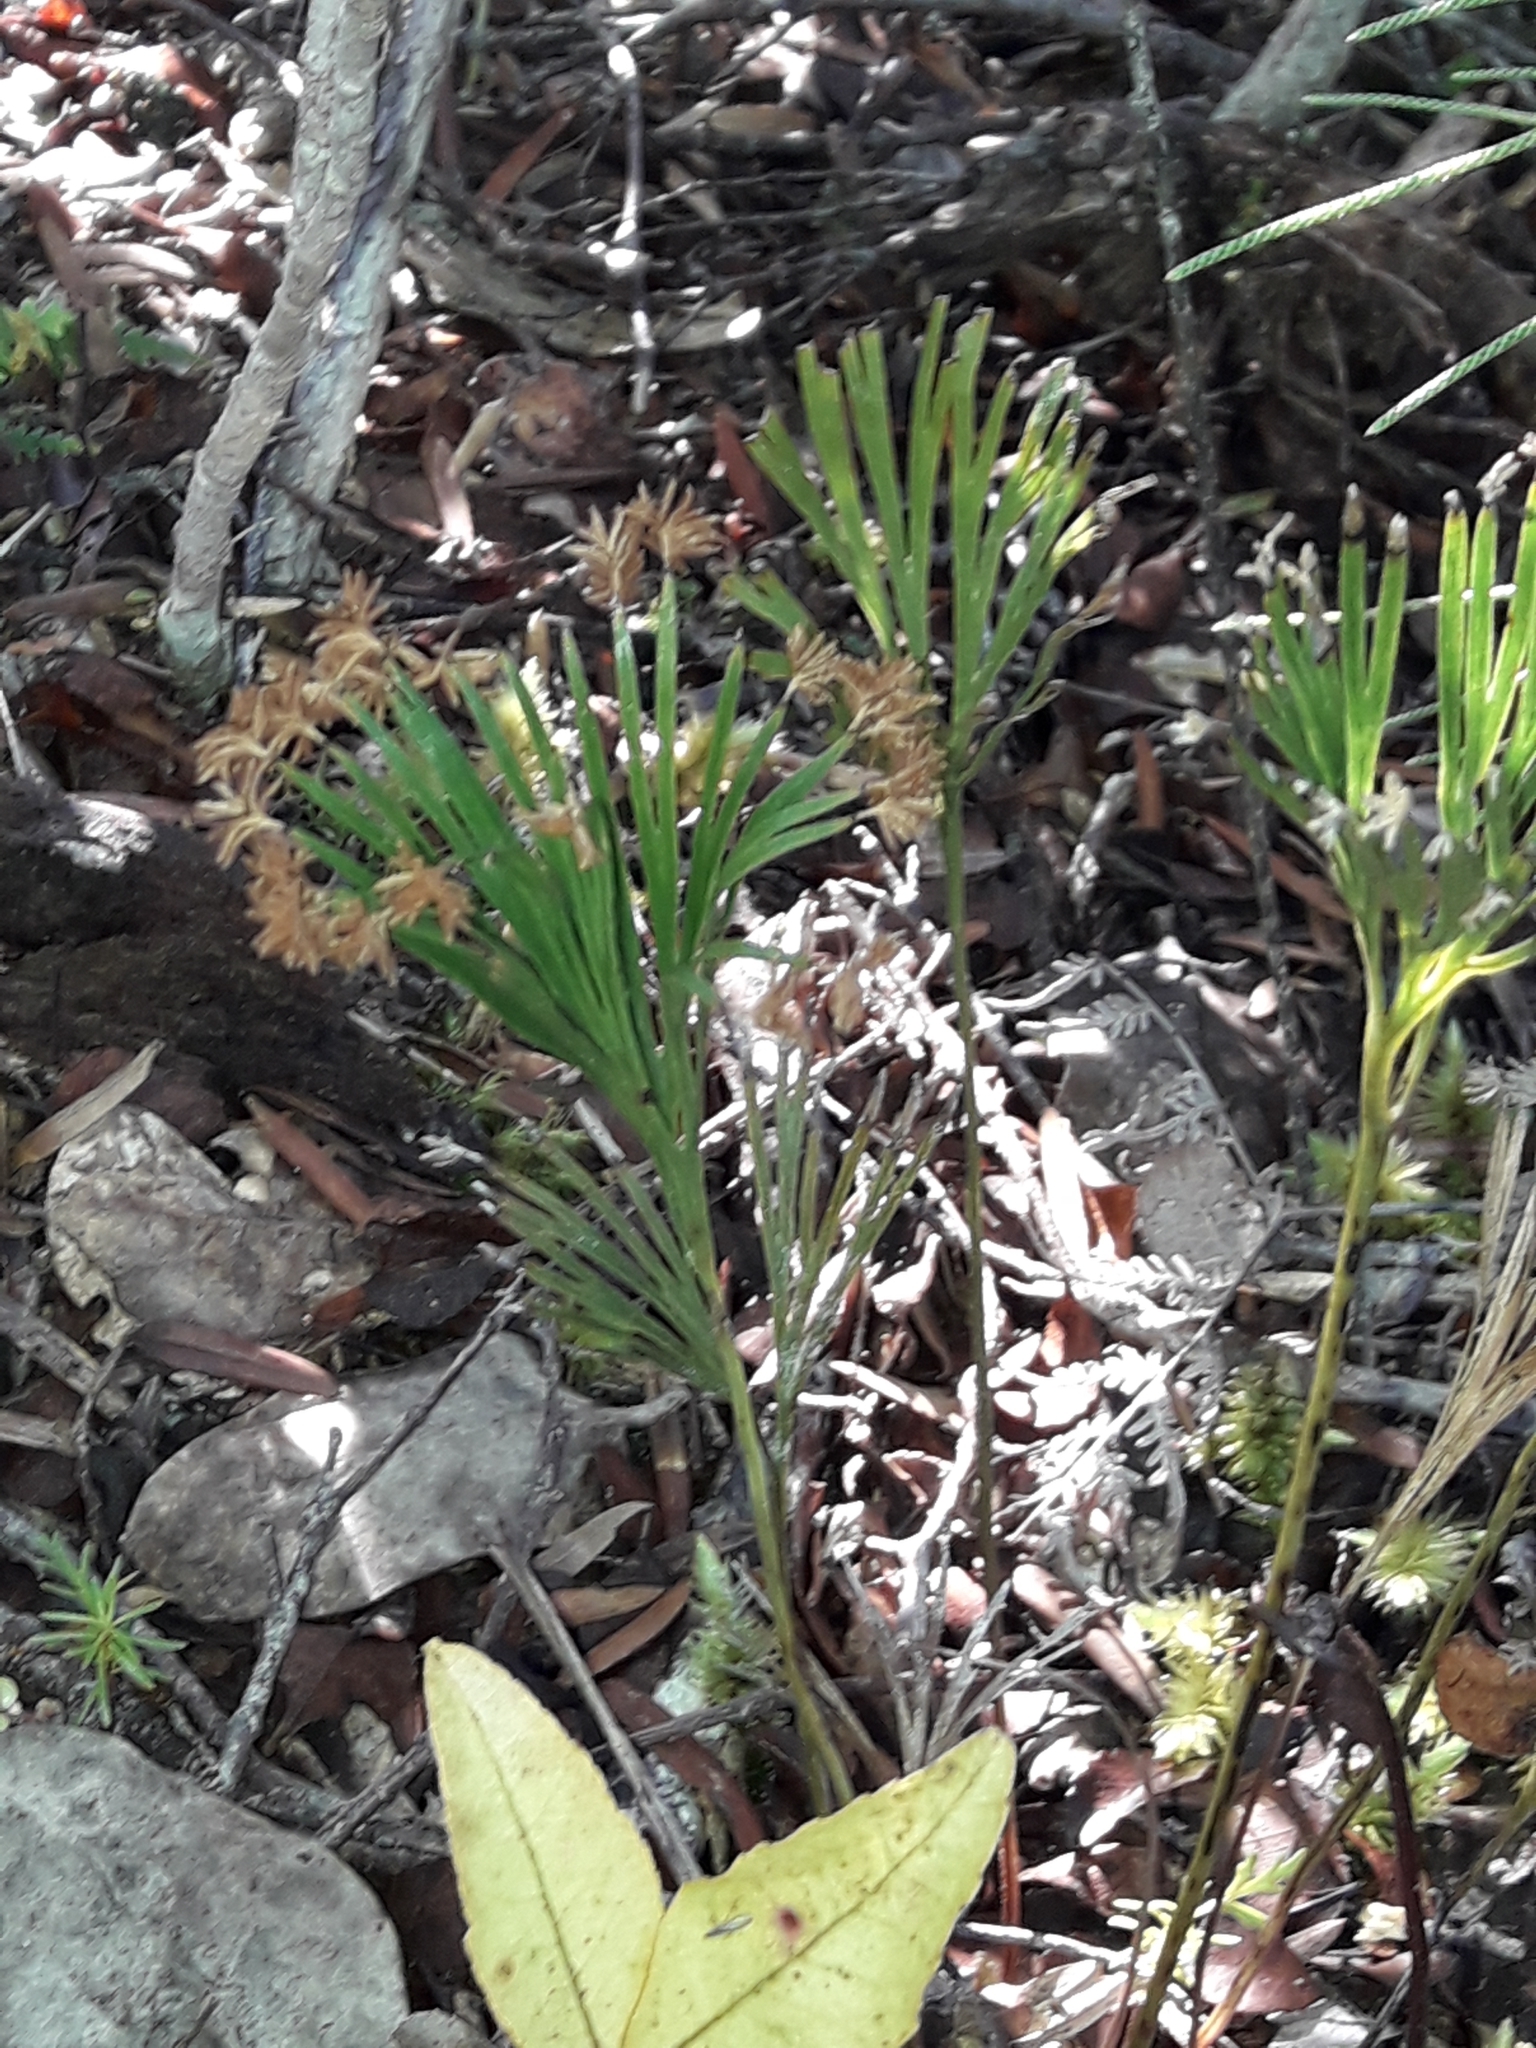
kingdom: Plantae
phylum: Tracheophyta
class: Polypodiopsida
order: Schizaeales
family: Schizaeaceae
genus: Schizaea
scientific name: Schizaea dichotoma
